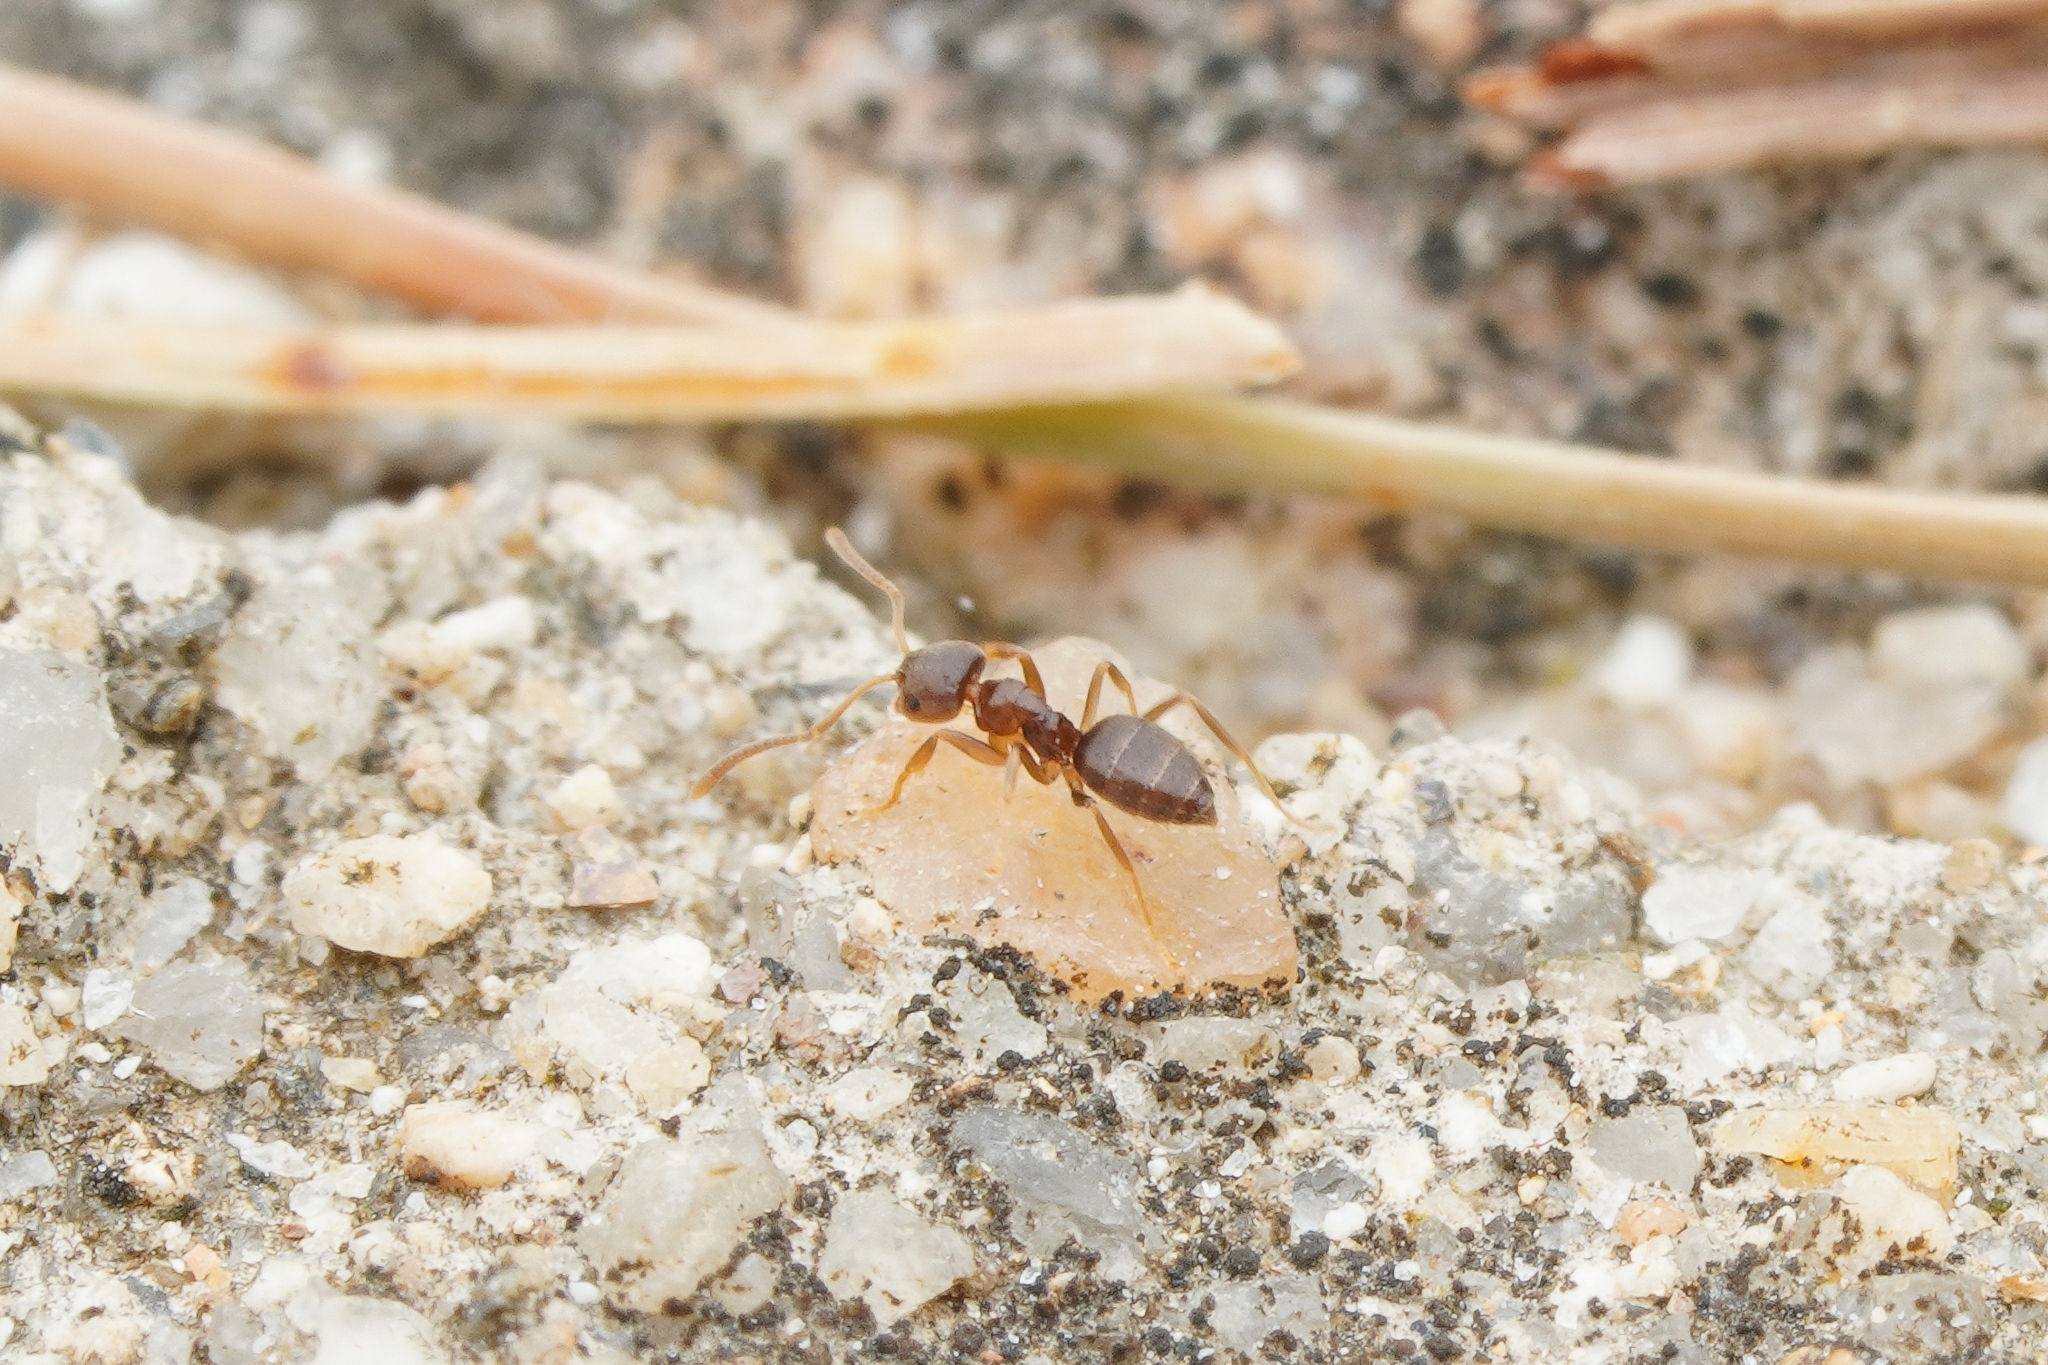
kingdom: Animalia
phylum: Arthropoda
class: Insecta
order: Hymenoptera
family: Formicidae
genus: Paraparatrechina
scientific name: Paraparatrechina
